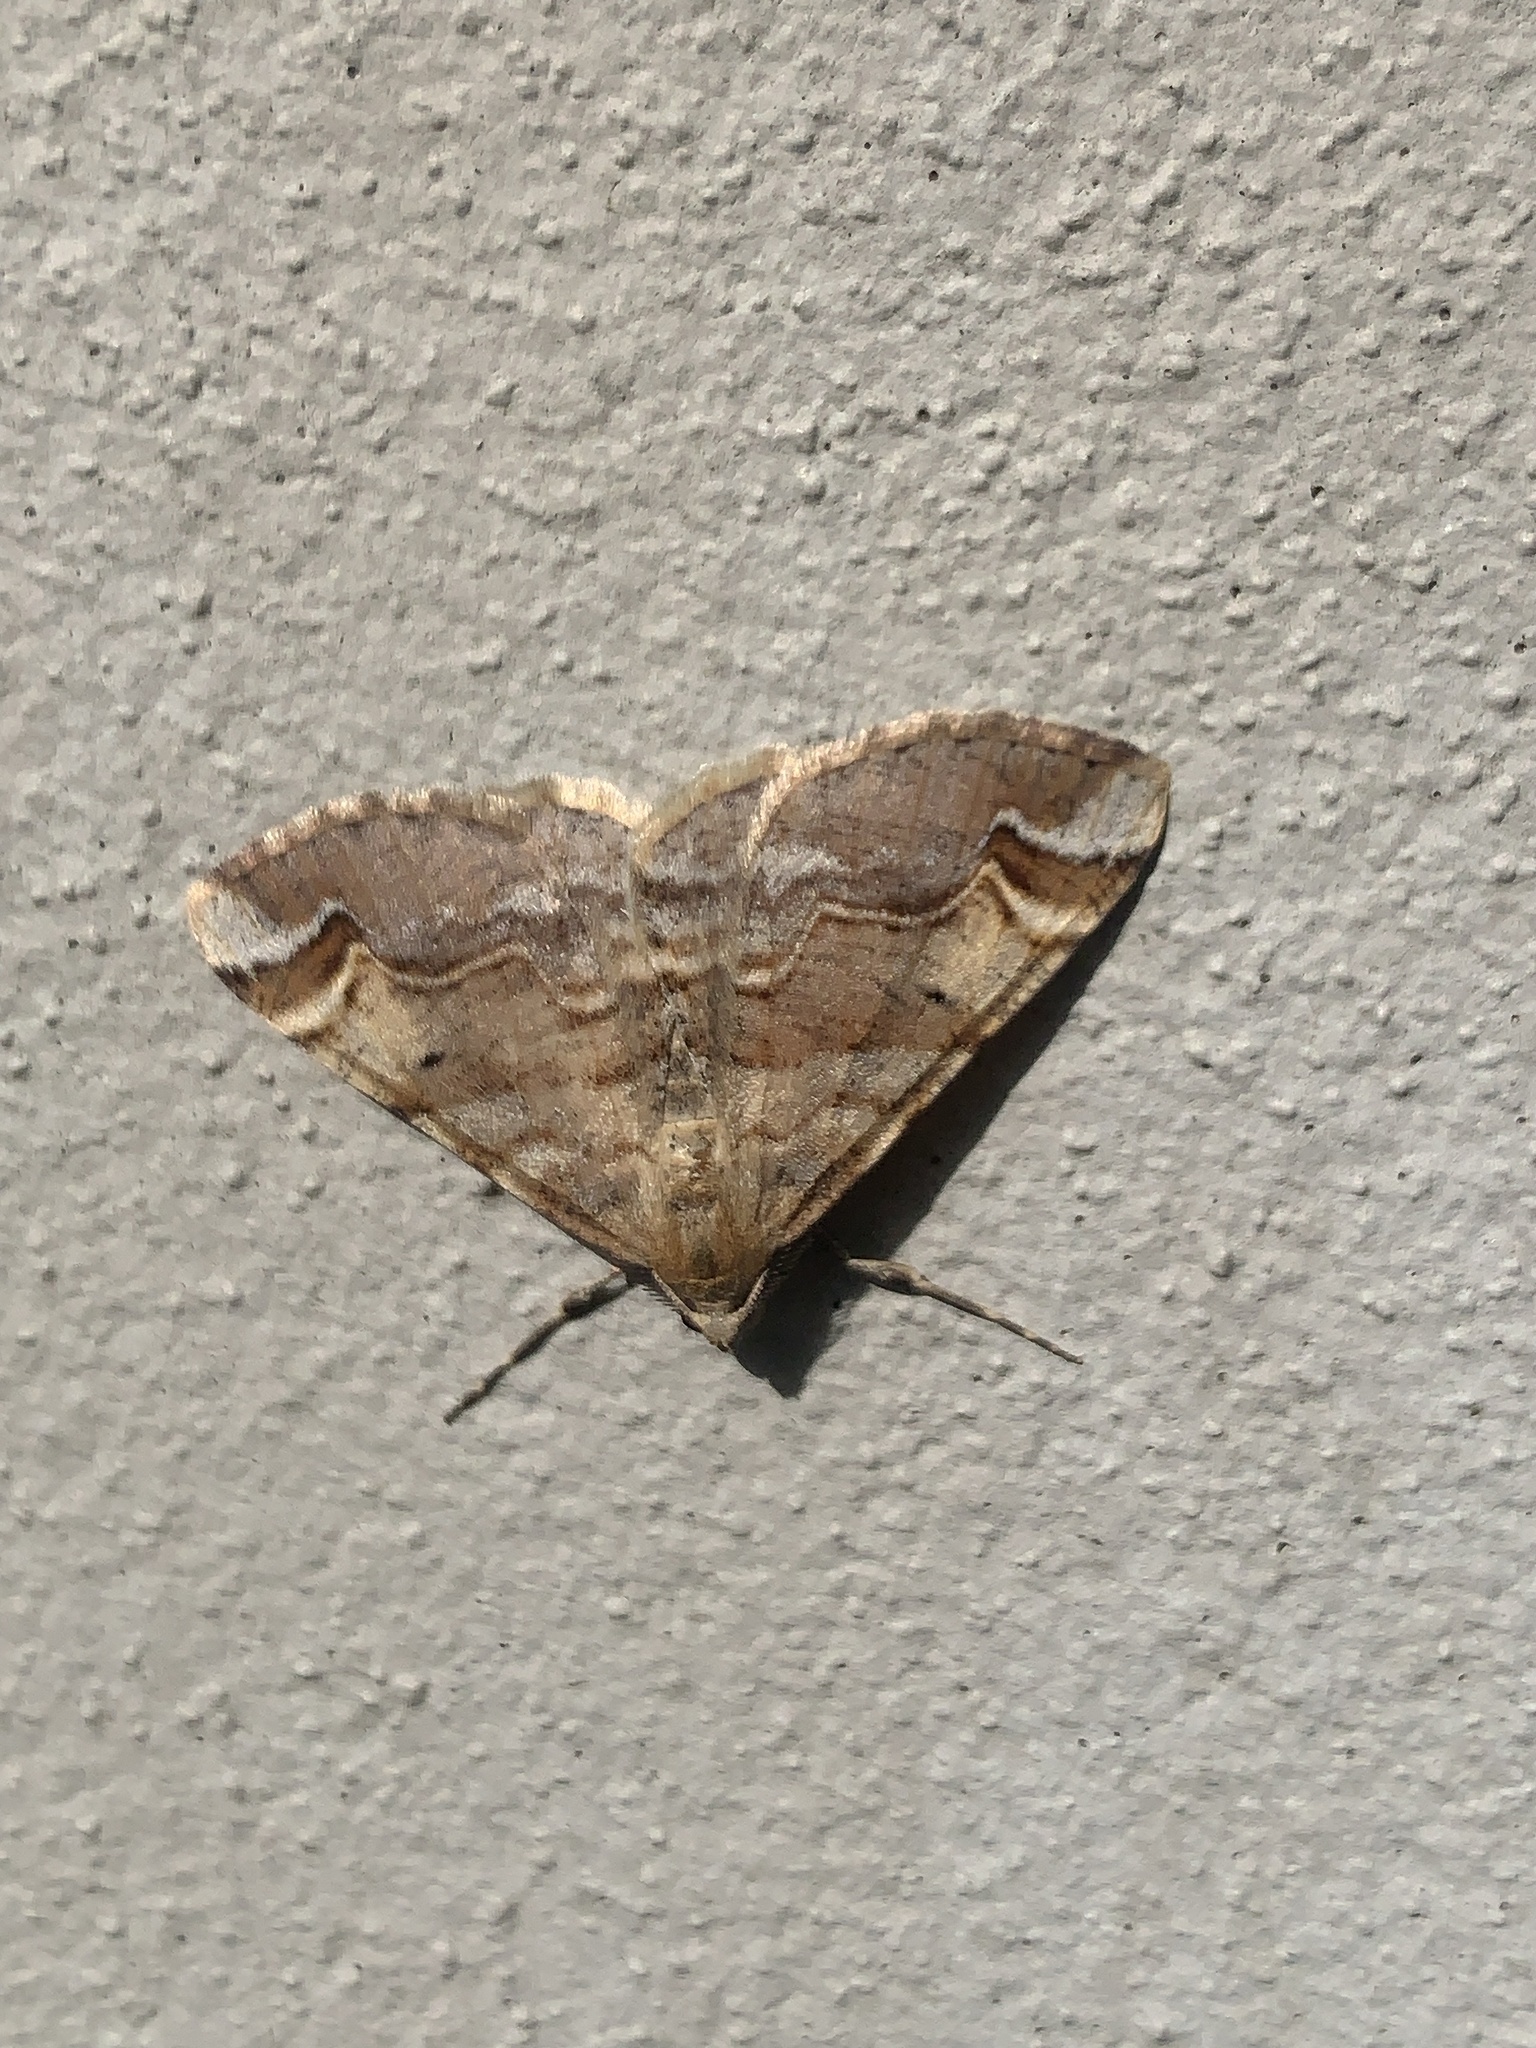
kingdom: Animalia
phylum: Arthropoda
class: Insecta
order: Lepidoptera
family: Geometridae
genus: Syneora
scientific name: Syneora emmelodes
